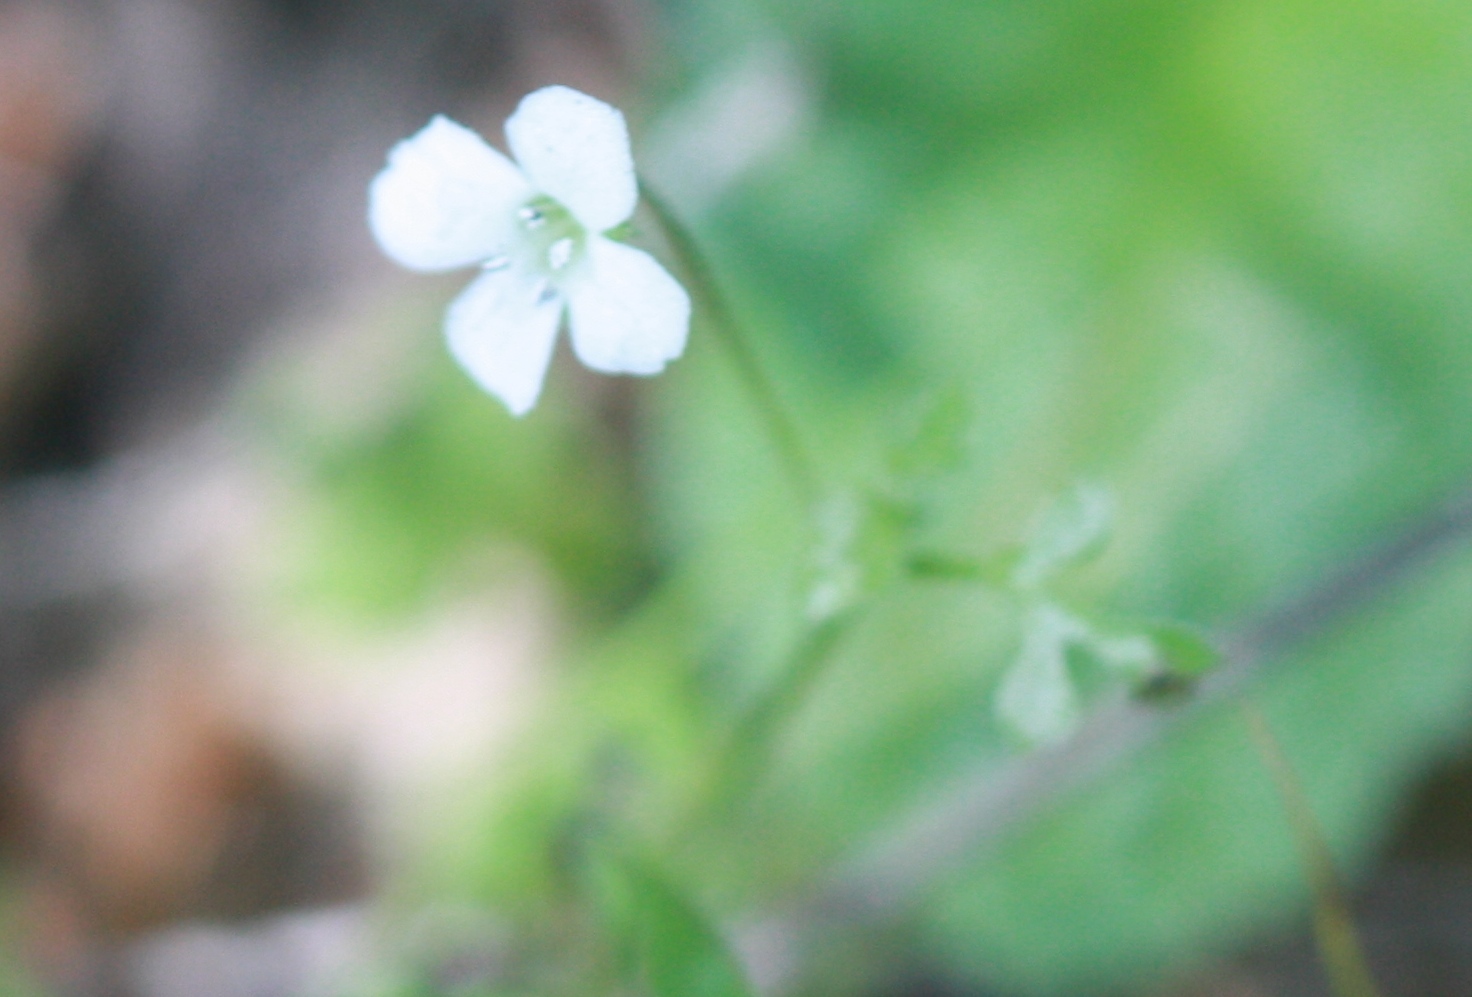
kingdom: Plantae
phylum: Tracheophyta
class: Magnoliopsida
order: Boraginales
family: Hydrophyllaceae
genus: Nemophila
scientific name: Nemophila heterophylla
